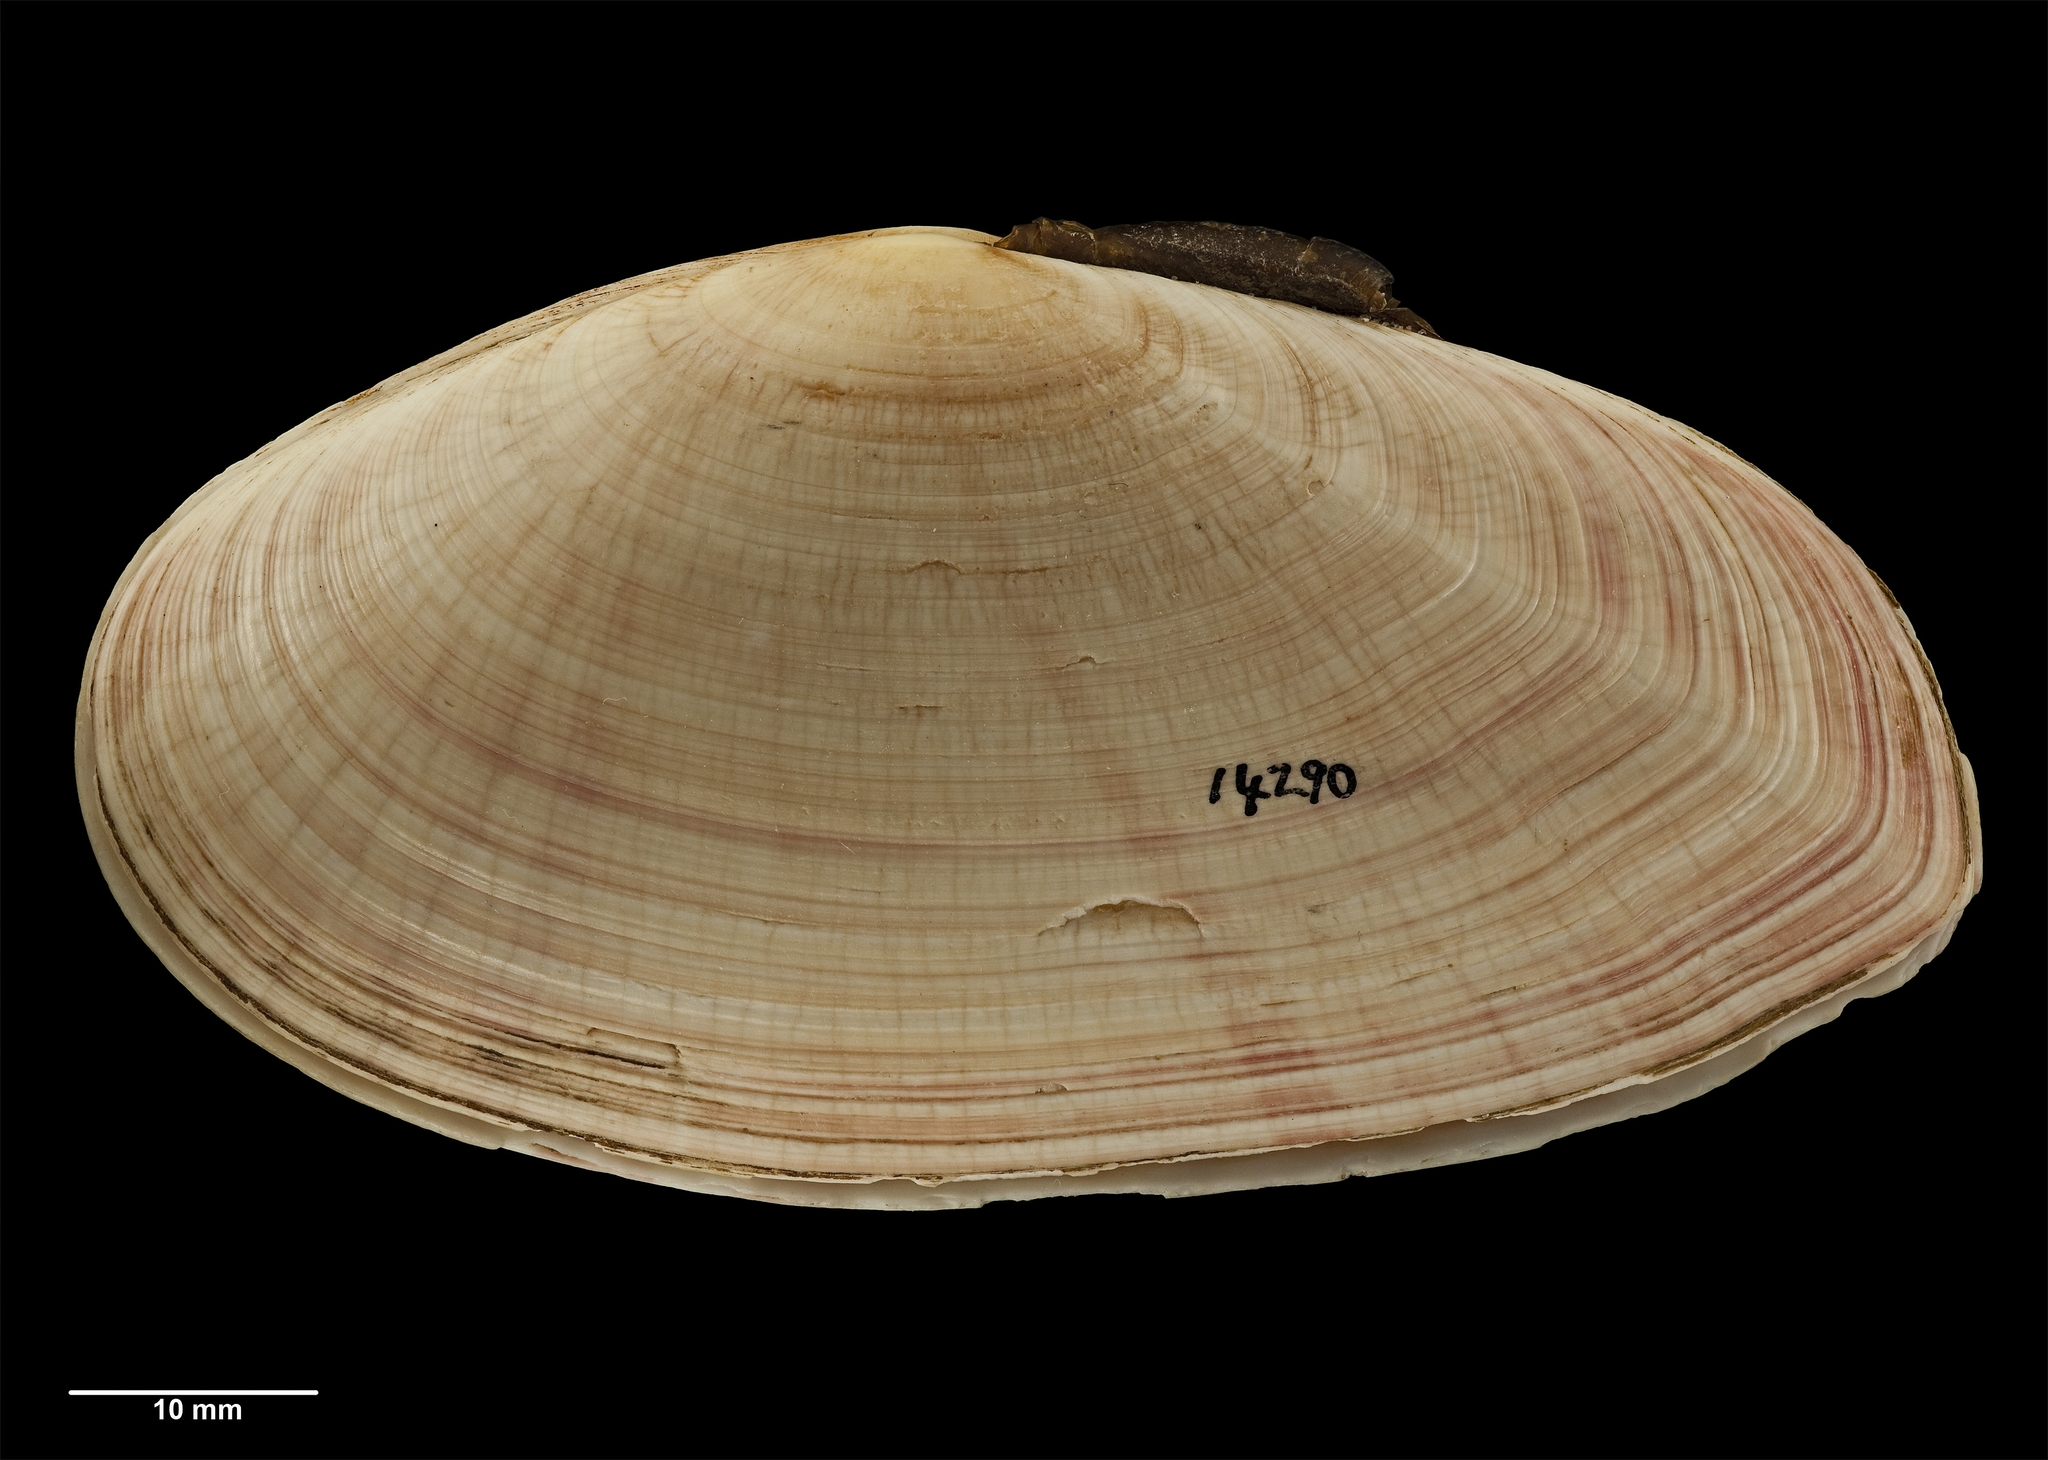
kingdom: Animalia
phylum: Mollusca
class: Bivalvia
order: Cardiida
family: Psammobiidae
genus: Gari
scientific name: Gari convexa
